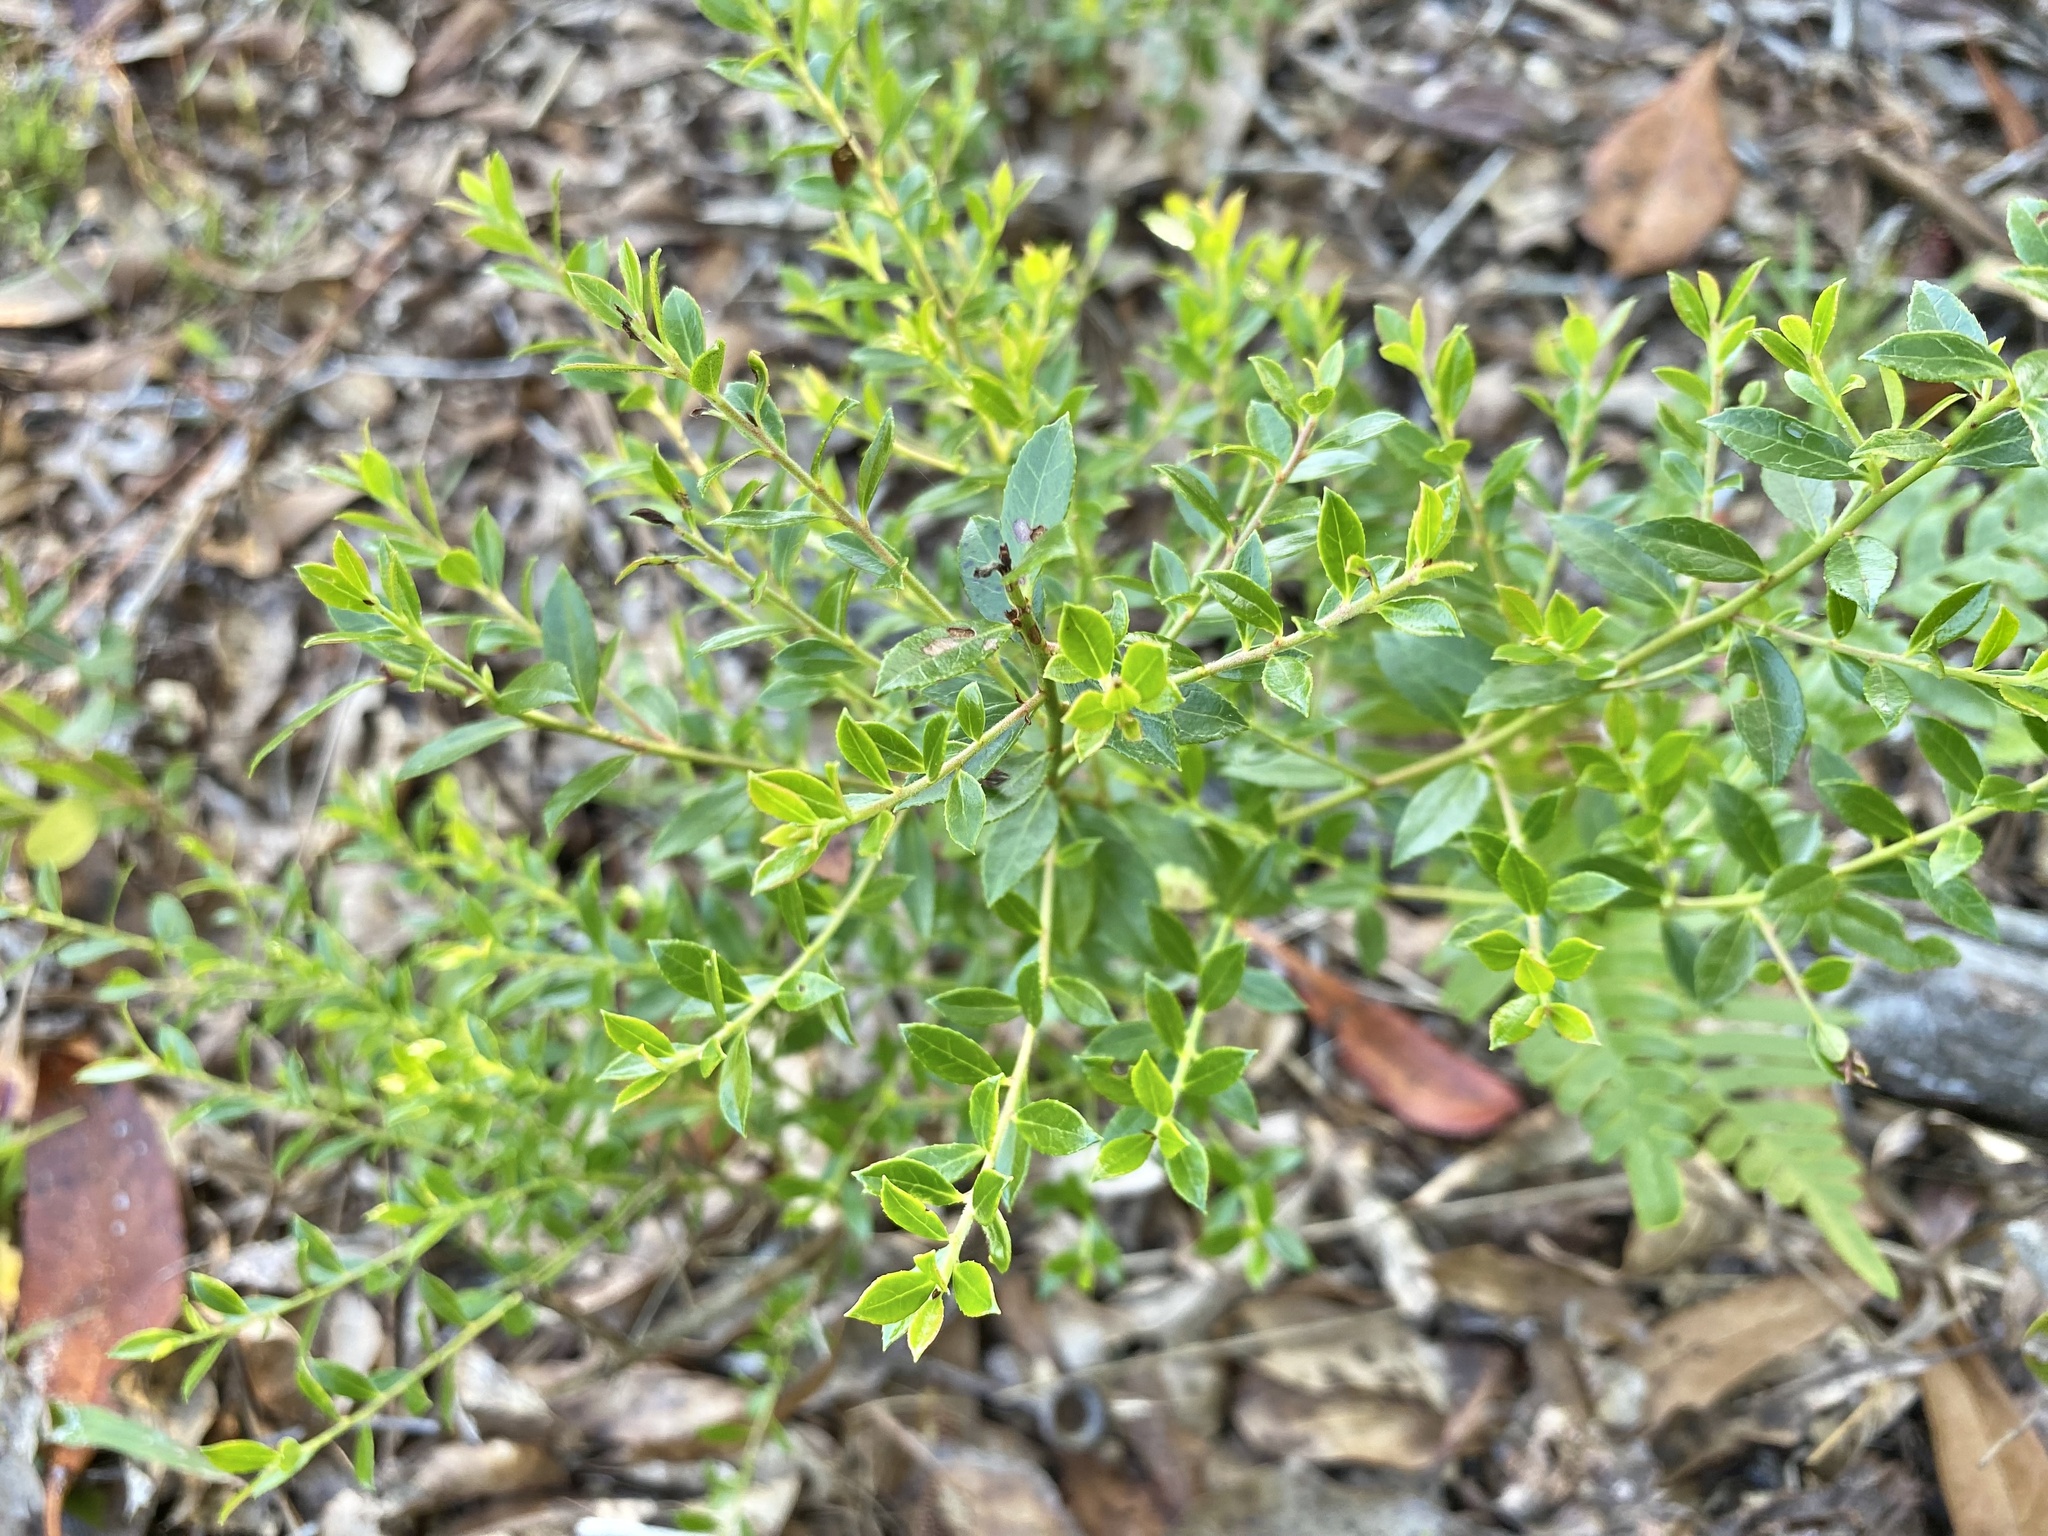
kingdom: Plantae
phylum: Tracheophyta
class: Magnoliopsida
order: Ericales
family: Ericaceae
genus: Vaccinium
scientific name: Vaccinium myrsinites
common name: Evergreen blueberry
